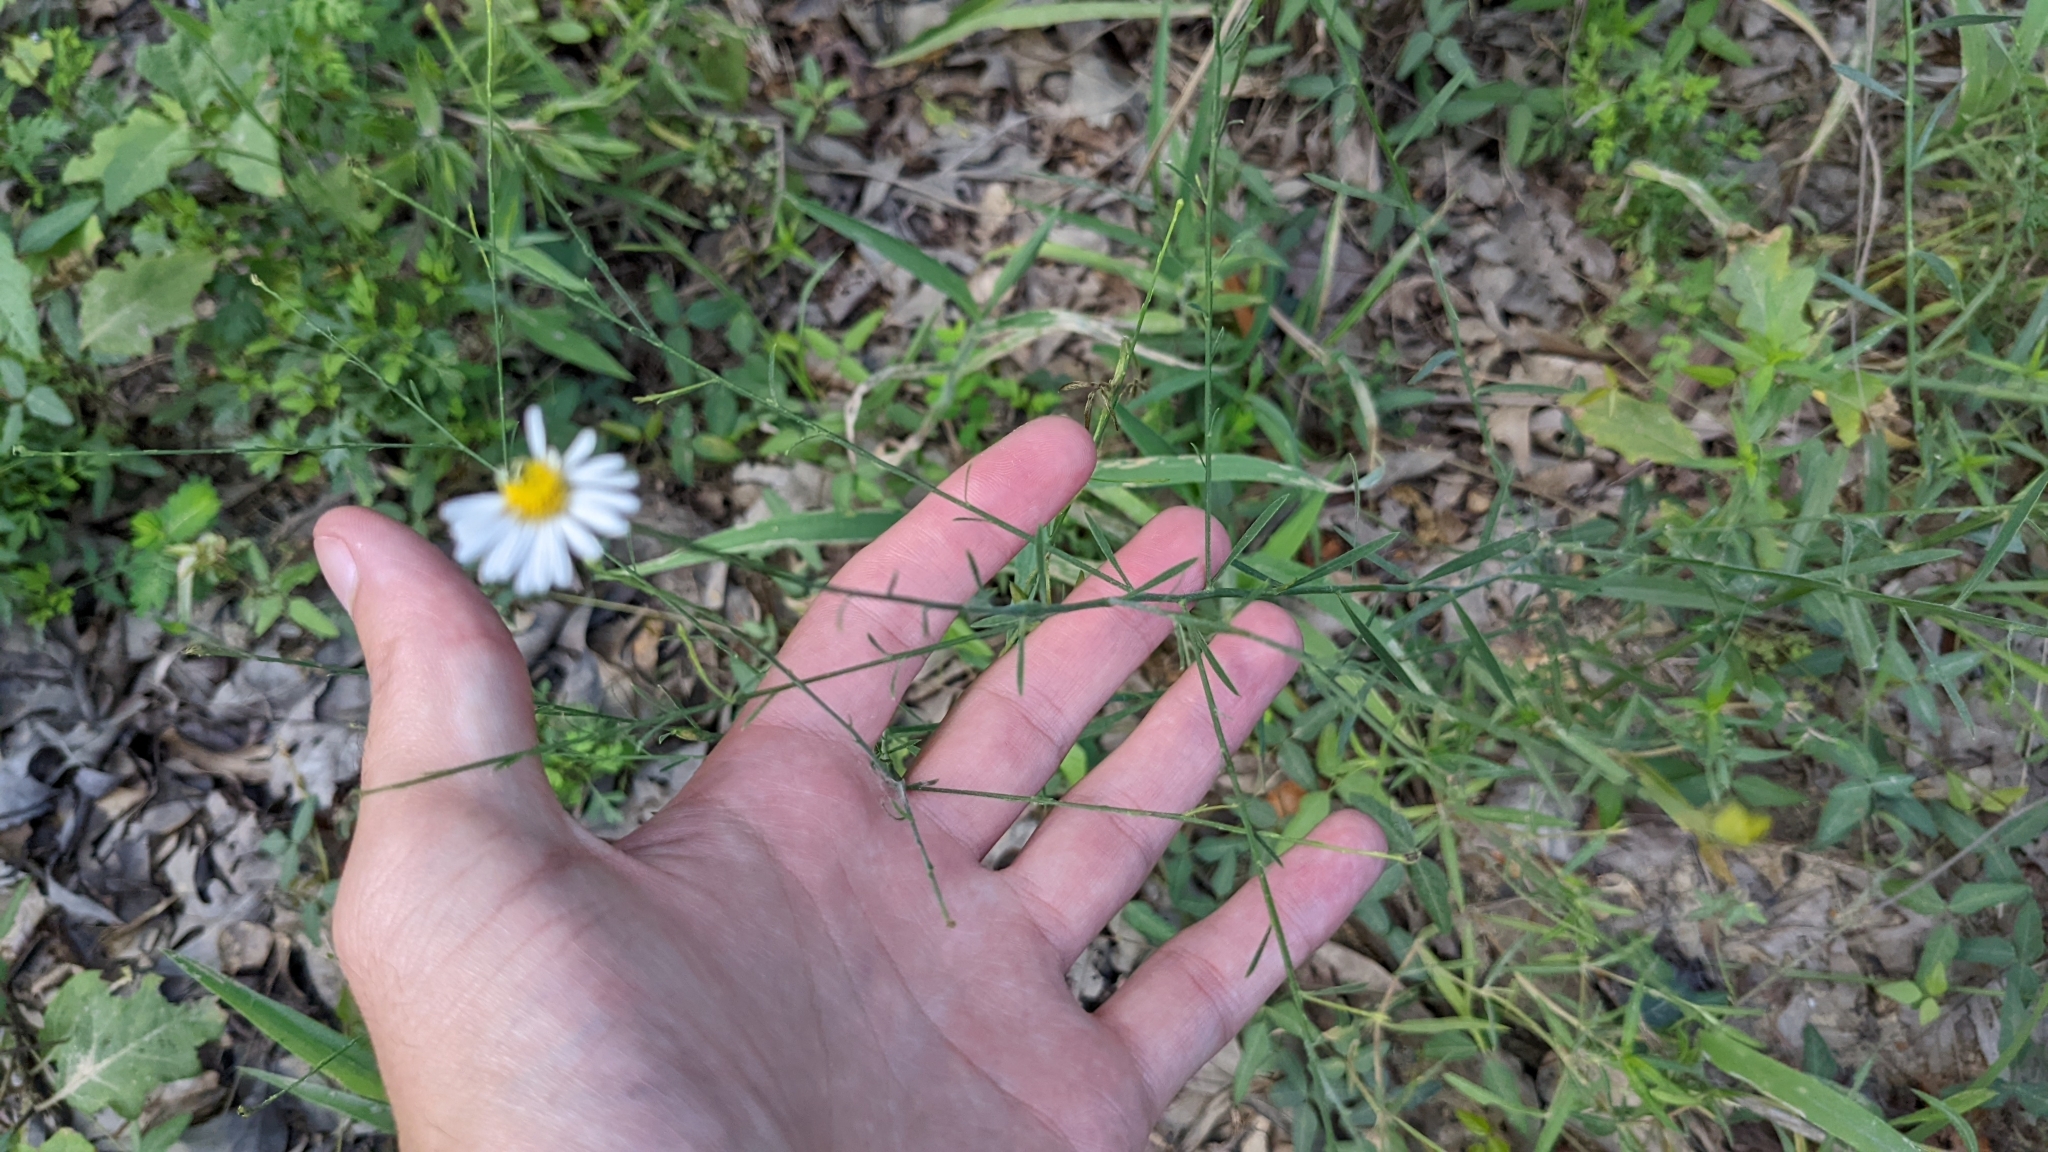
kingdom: Plantae
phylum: Tracheophyta
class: Magnoliopsida
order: Asterales
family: Asteraceae
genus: Boltonia
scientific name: Boltonia diffusa
